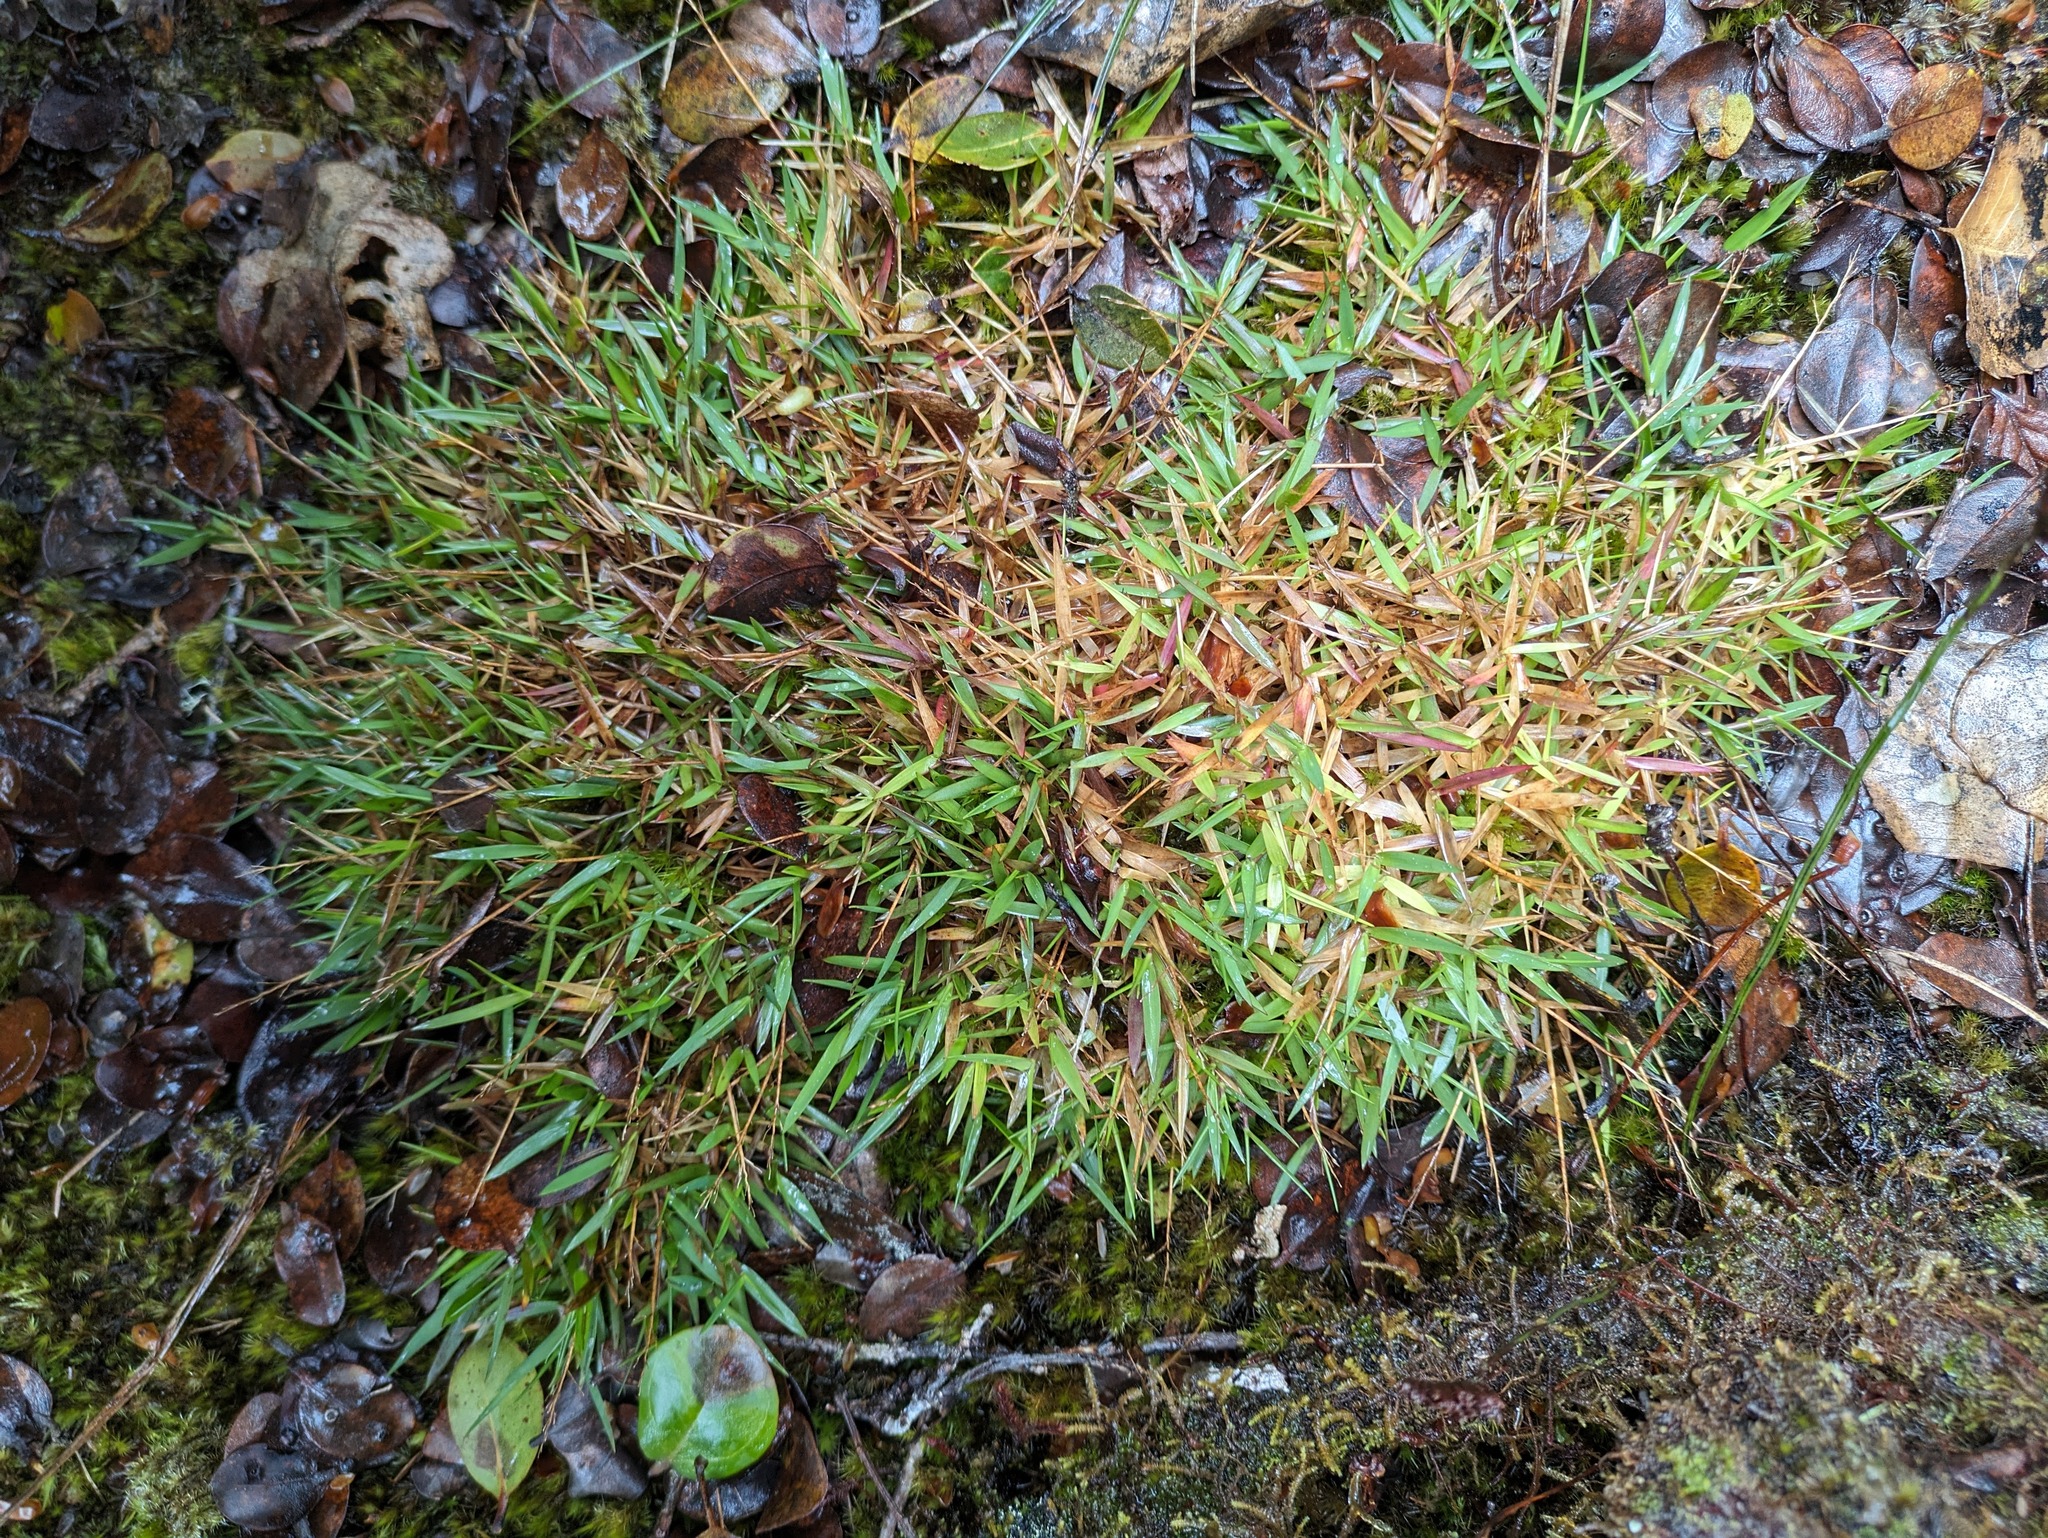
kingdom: Plantae
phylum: Tracheophyta
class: Liliopsida
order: Poales
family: Poaceae
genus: Dichanthelium
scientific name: Dichanthelium cynodon
